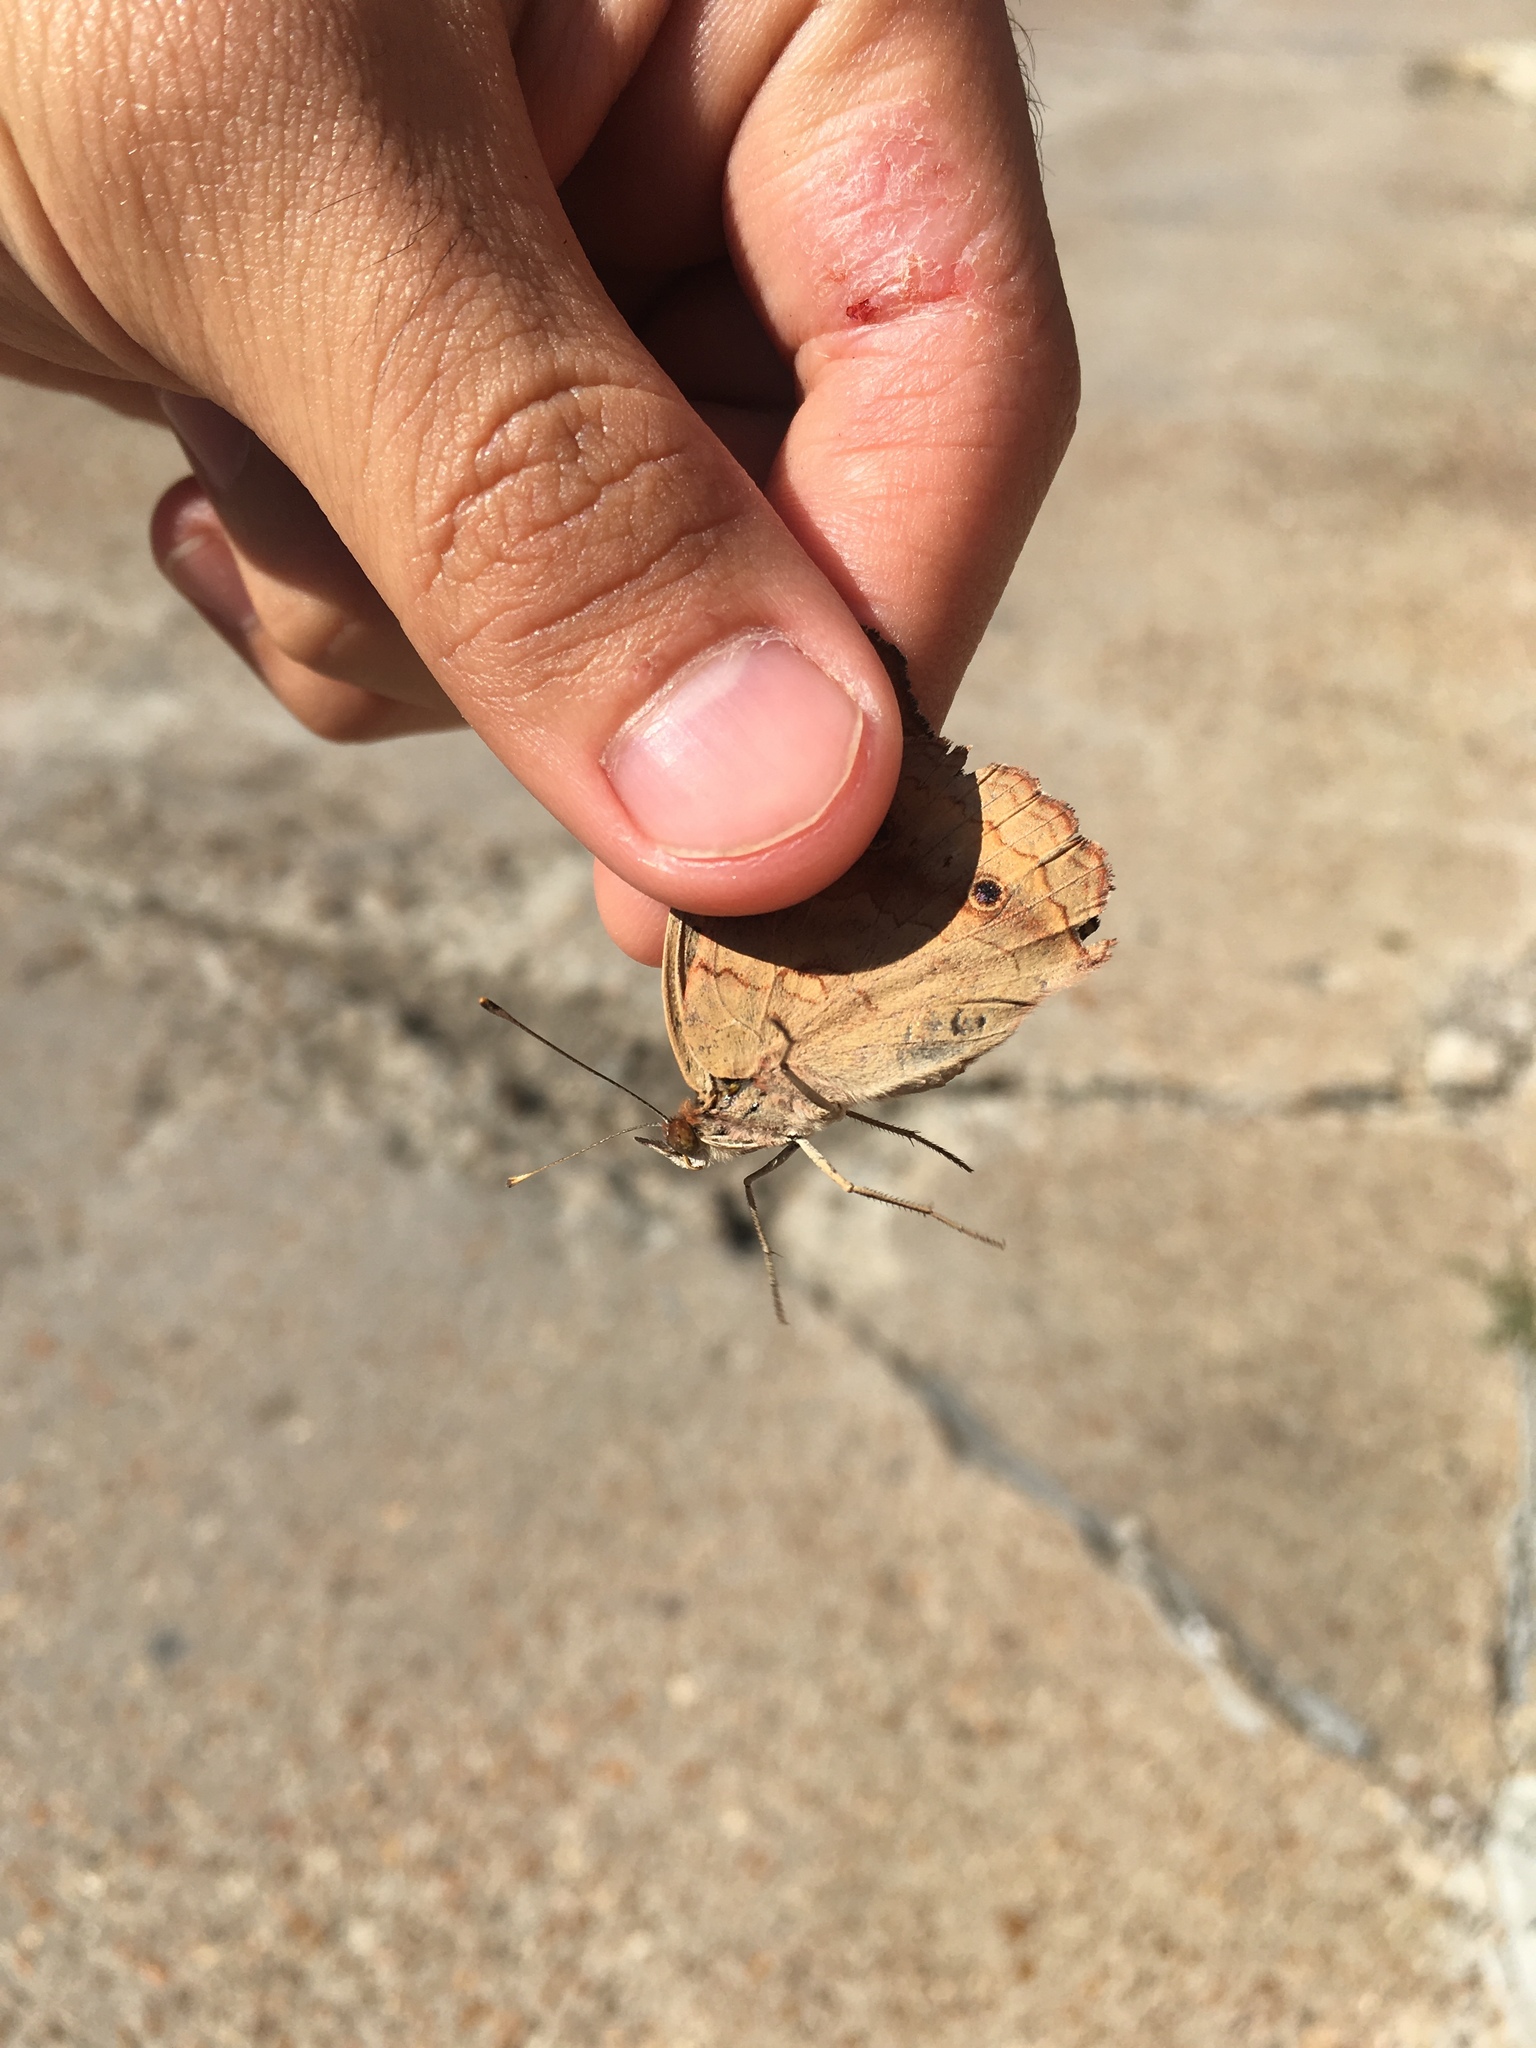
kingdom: Animalia
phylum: Arthropoda
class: Insecta
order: Lepidoptera
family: Nymphalidae
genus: Junonia
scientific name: Junonia coenia
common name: Common buckeye
